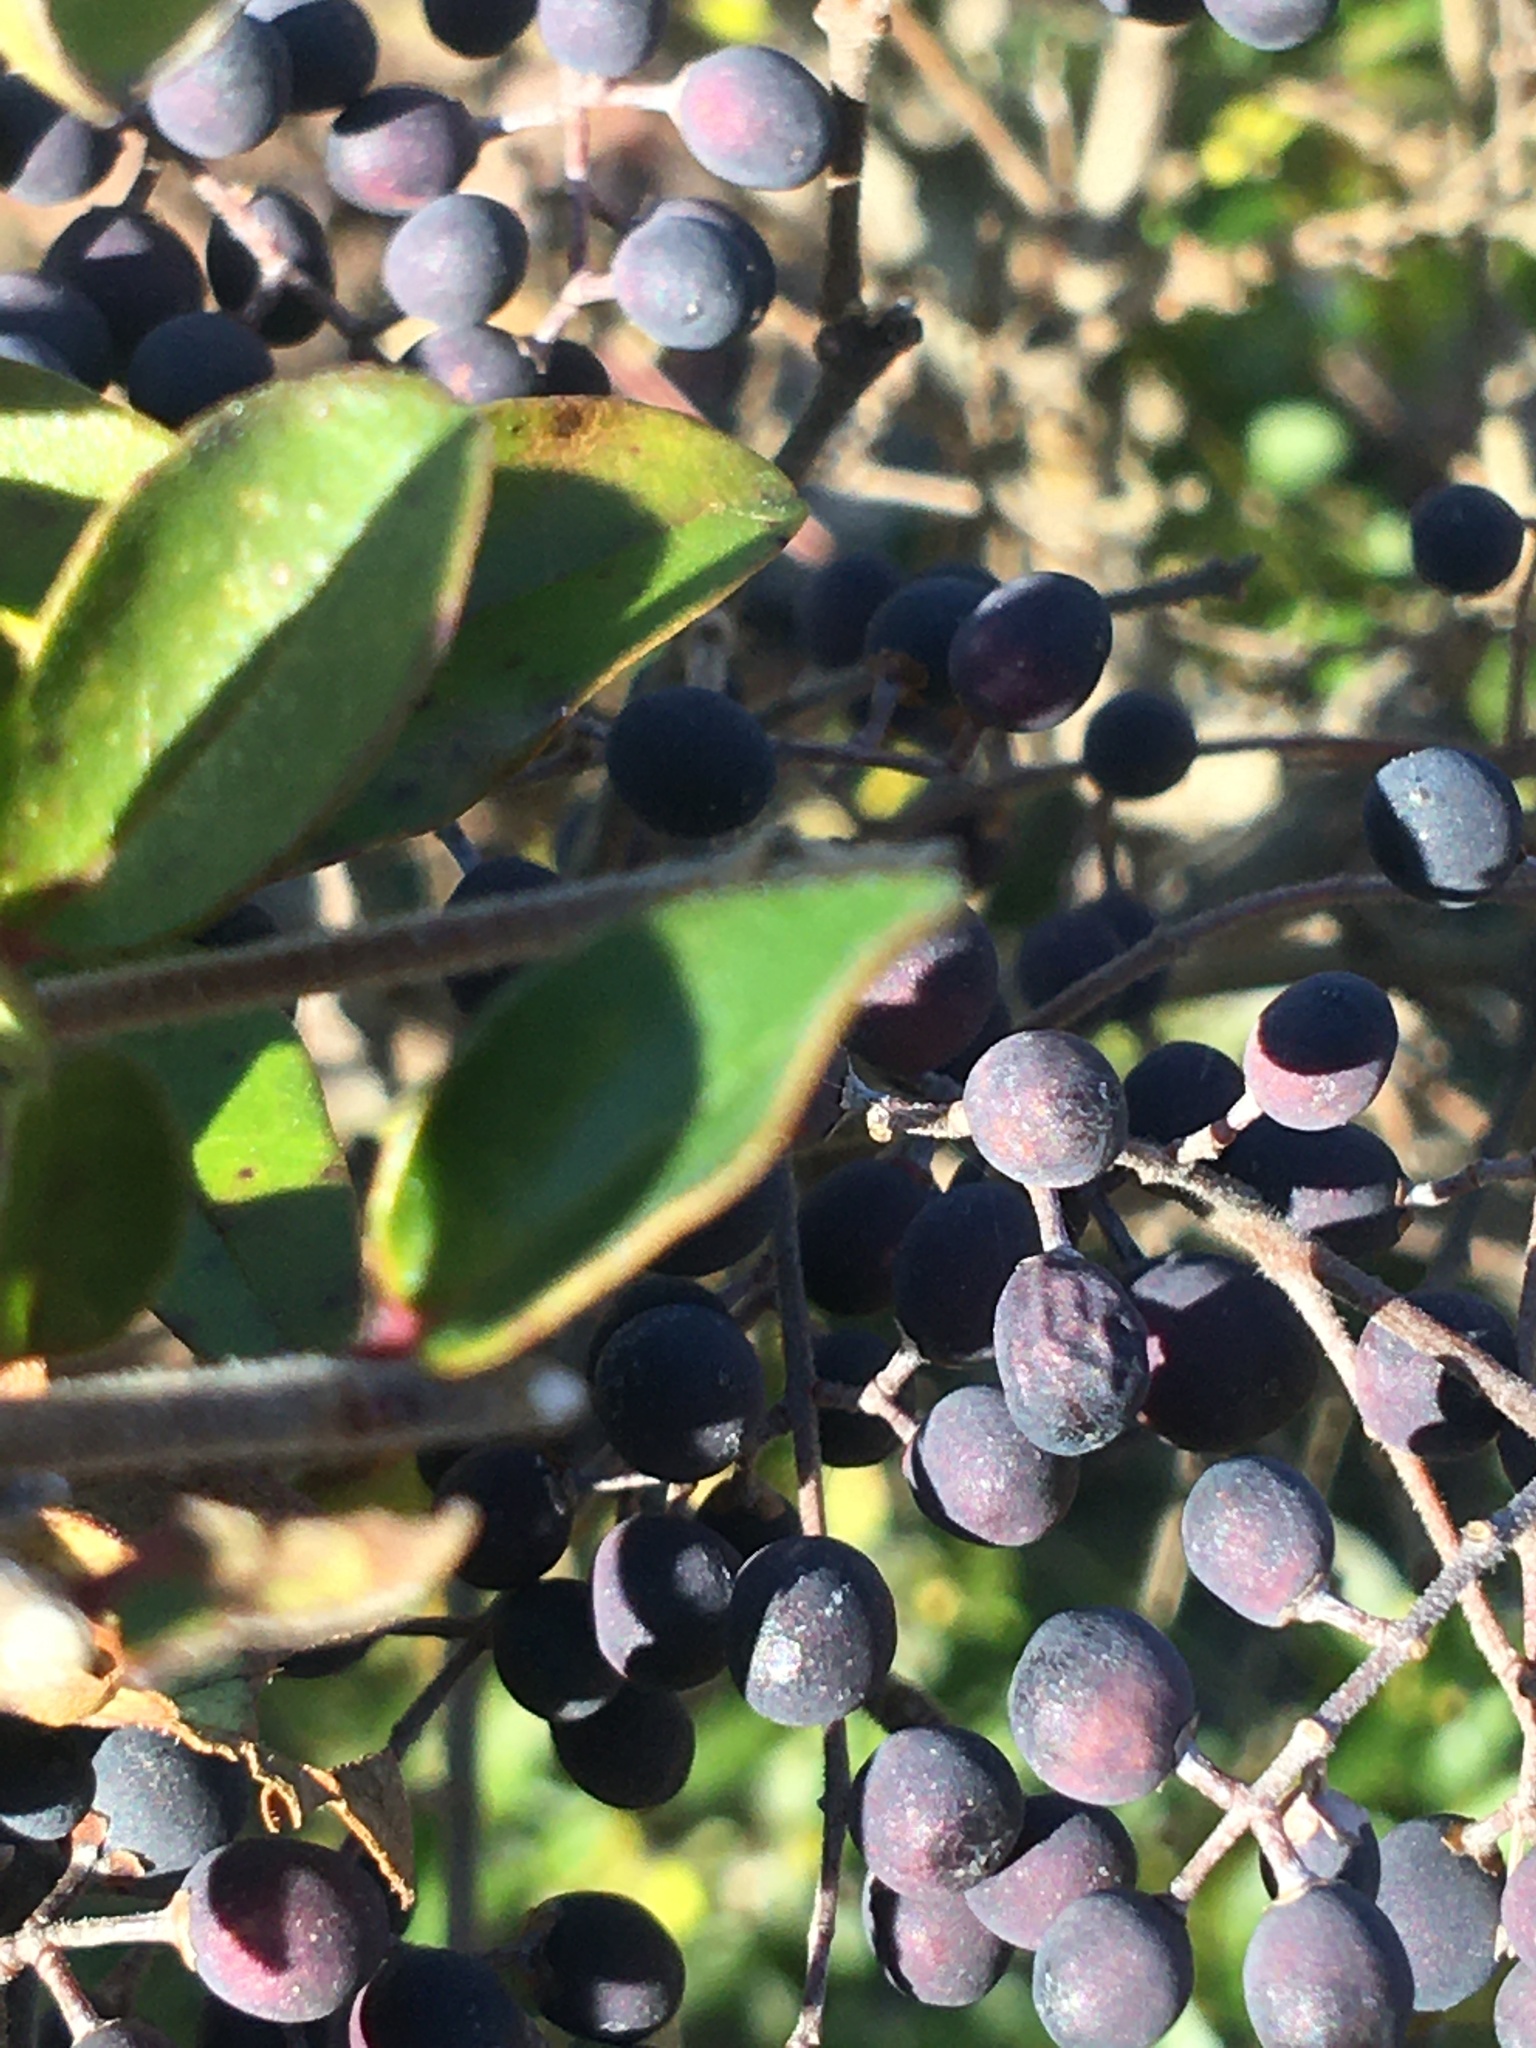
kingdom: Plantae
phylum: Tracheophyta
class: Magnoliopsida
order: Lamiales
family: Oleaceae
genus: Ligustrum
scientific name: Ligustrum sinense
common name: Chinese privet
